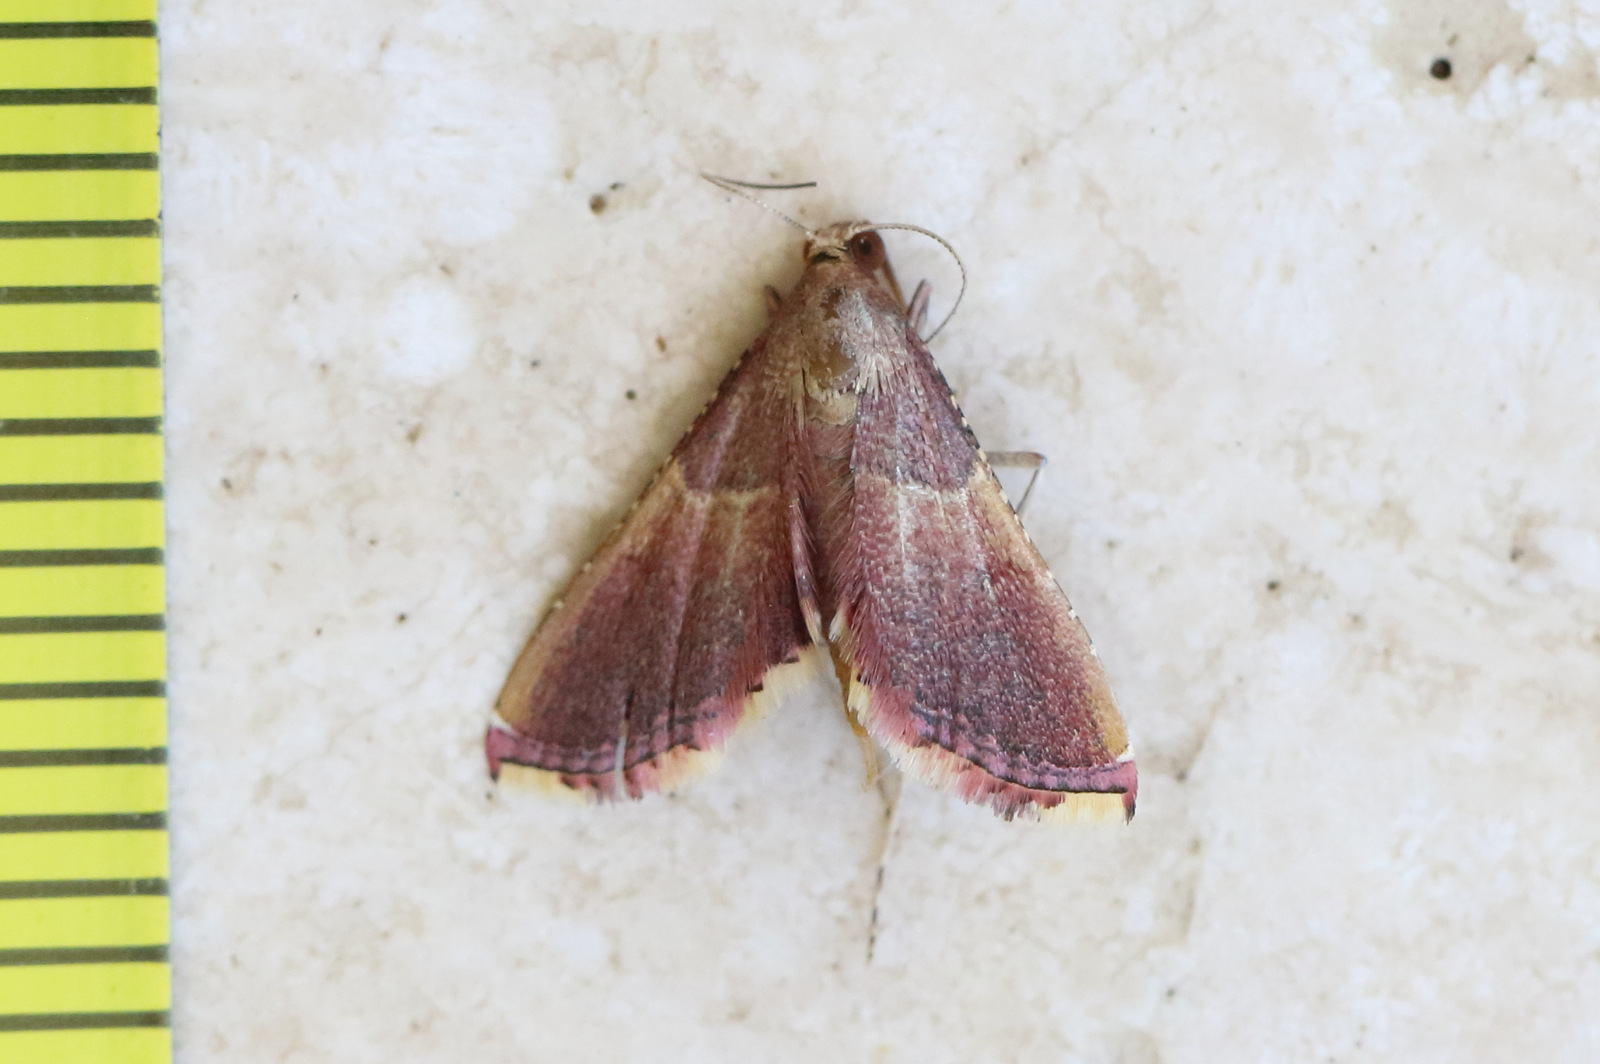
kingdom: Animalia
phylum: Arthropoda
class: Insecta
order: Lepidoptera
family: Pyralidae
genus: Endotricha
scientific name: Endotricha mesenterialis
